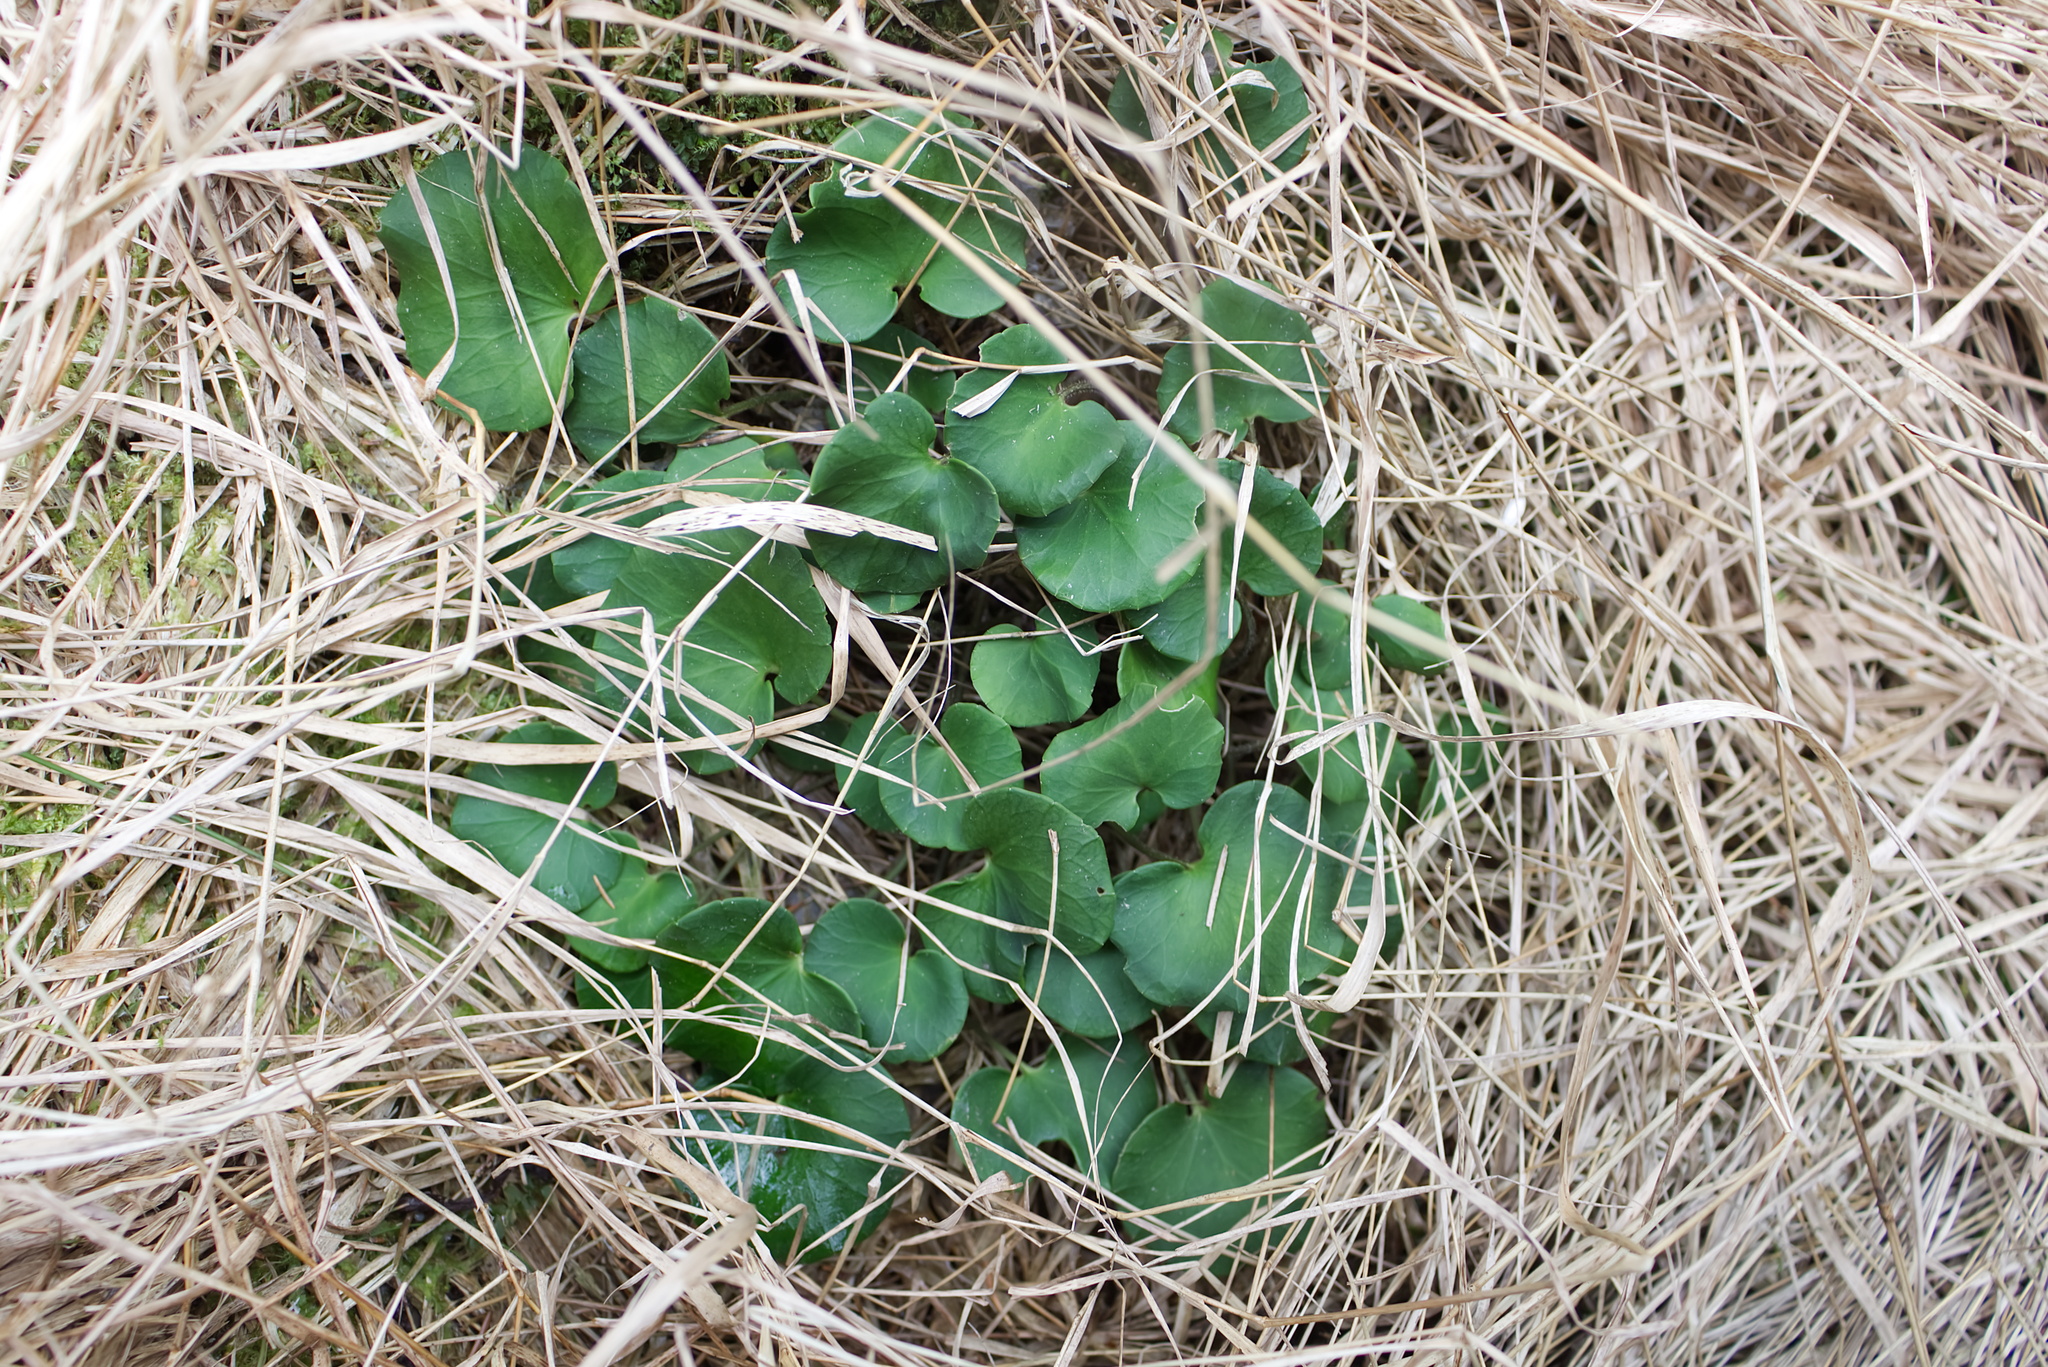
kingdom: Plantae
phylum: Tracheophyta
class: Magnoliopsida
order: Ericales
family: Primulaceae
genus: Soldanella
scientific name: Soldanella montana
